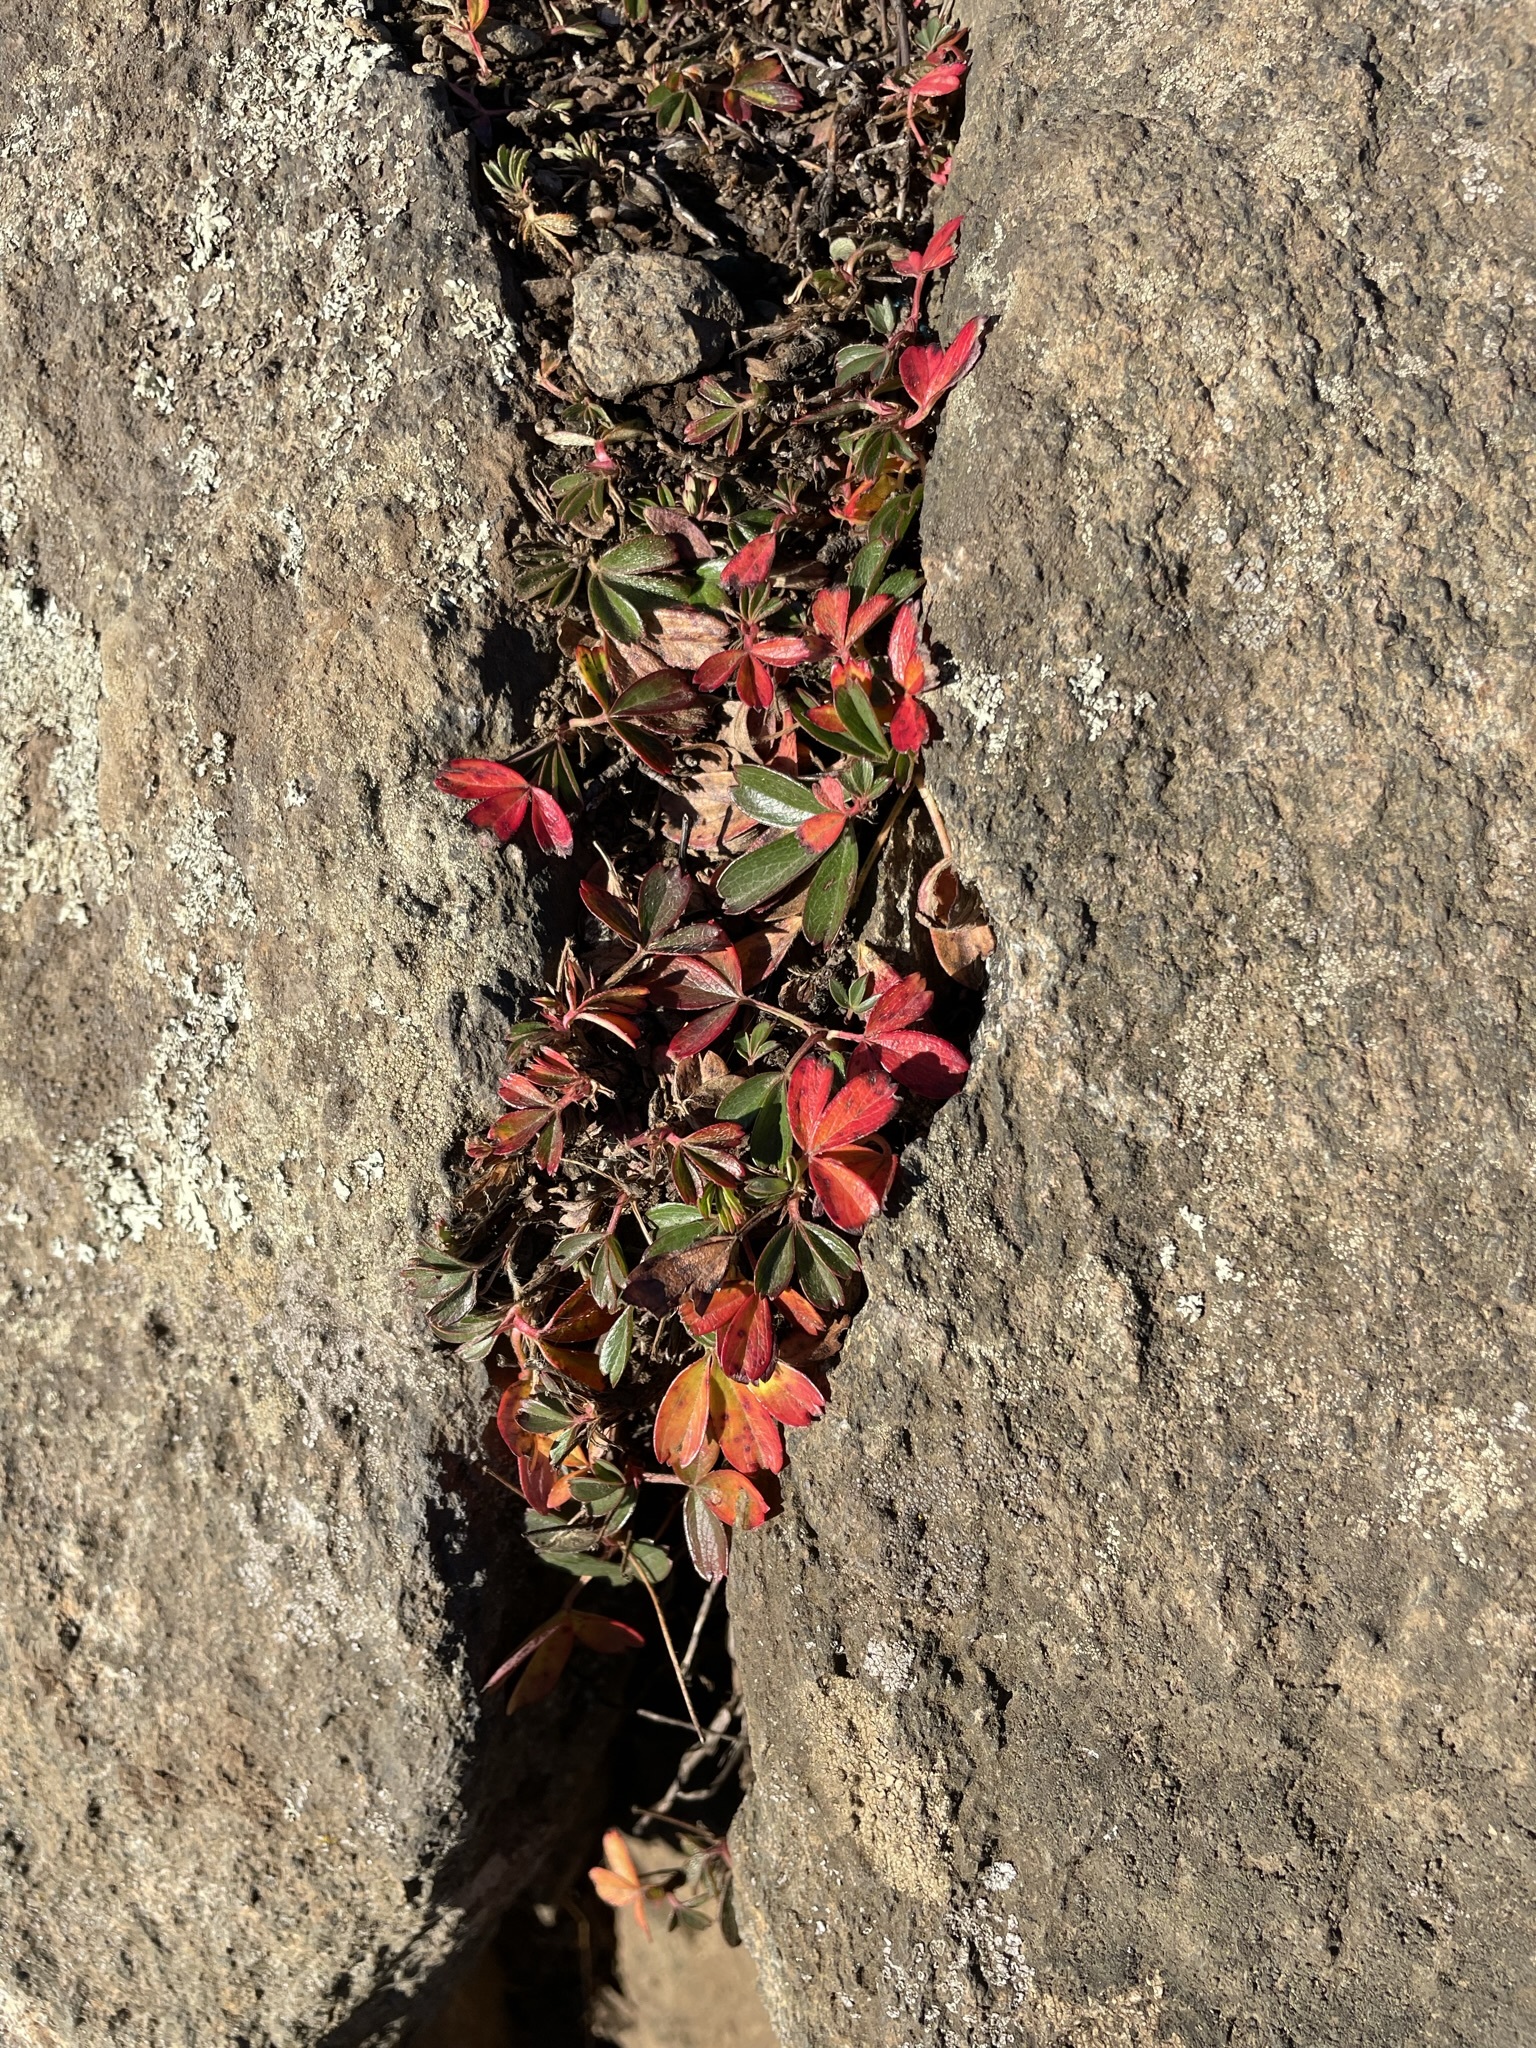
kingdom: Plantae
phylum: Tracheophyta
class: Magnoliopsida
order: Rosales
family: Rosaceae
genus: Sibbaldia
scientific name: Sibbaldia tridentata
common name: Three-toothed cinquefoil
